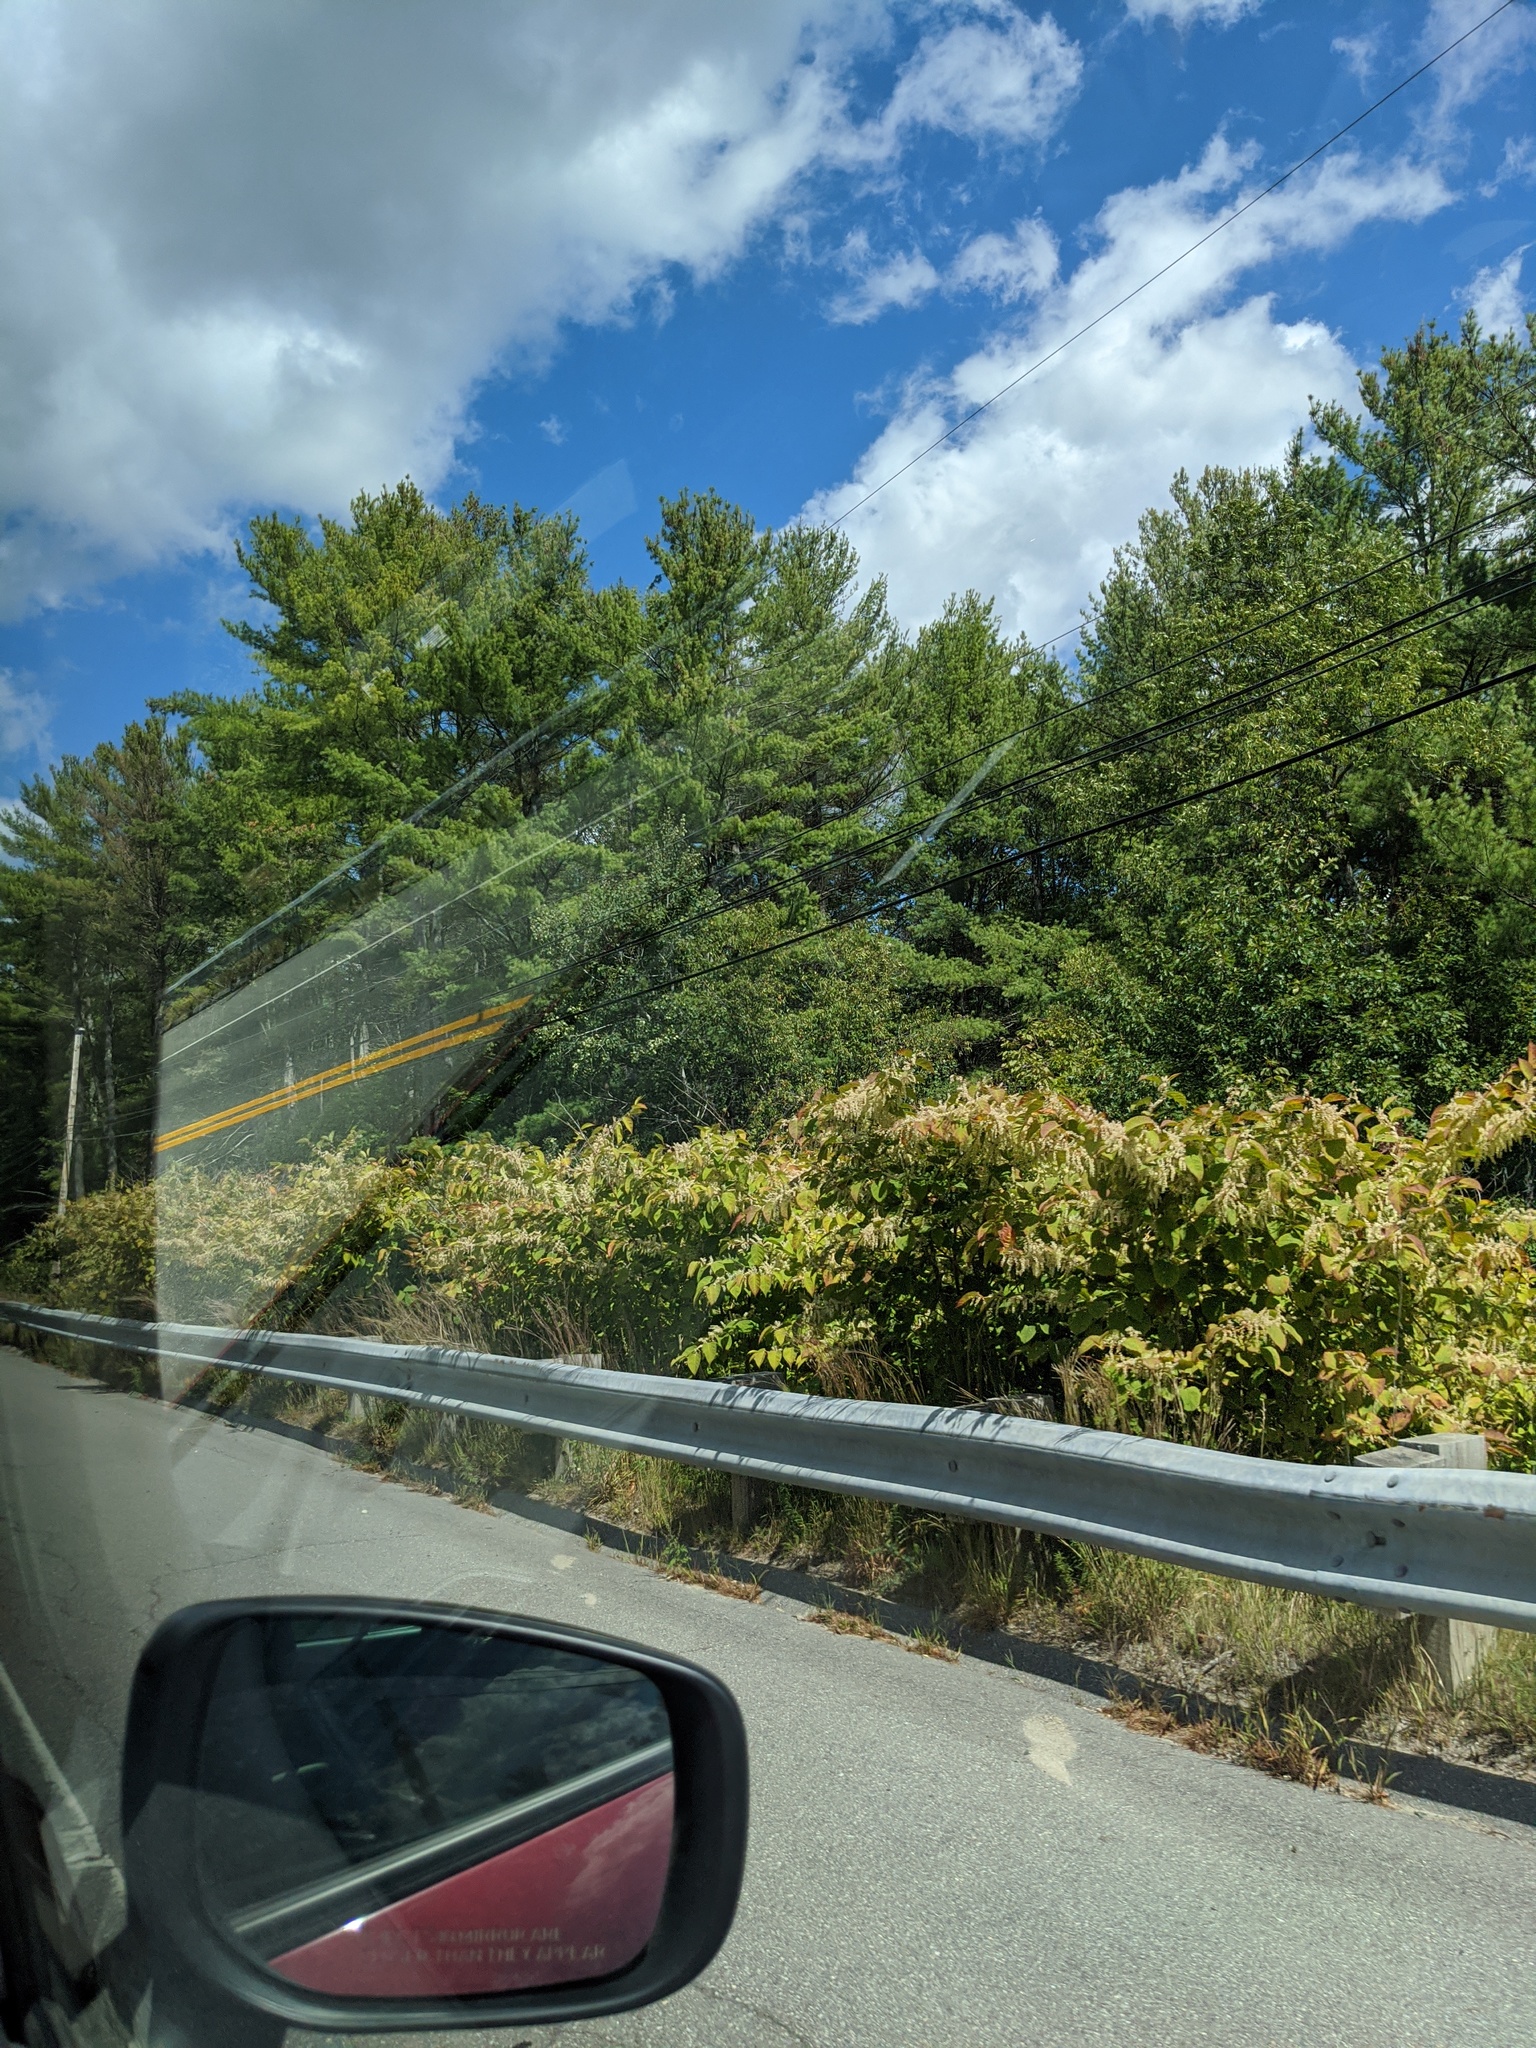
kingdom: Plantae
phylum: Tracheophyta
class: Magnoliopsida
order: Caryophyllales
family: Polygonaceae
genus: Reynoutria
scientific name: Reynoutria japonica
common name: Japanese knotweed
